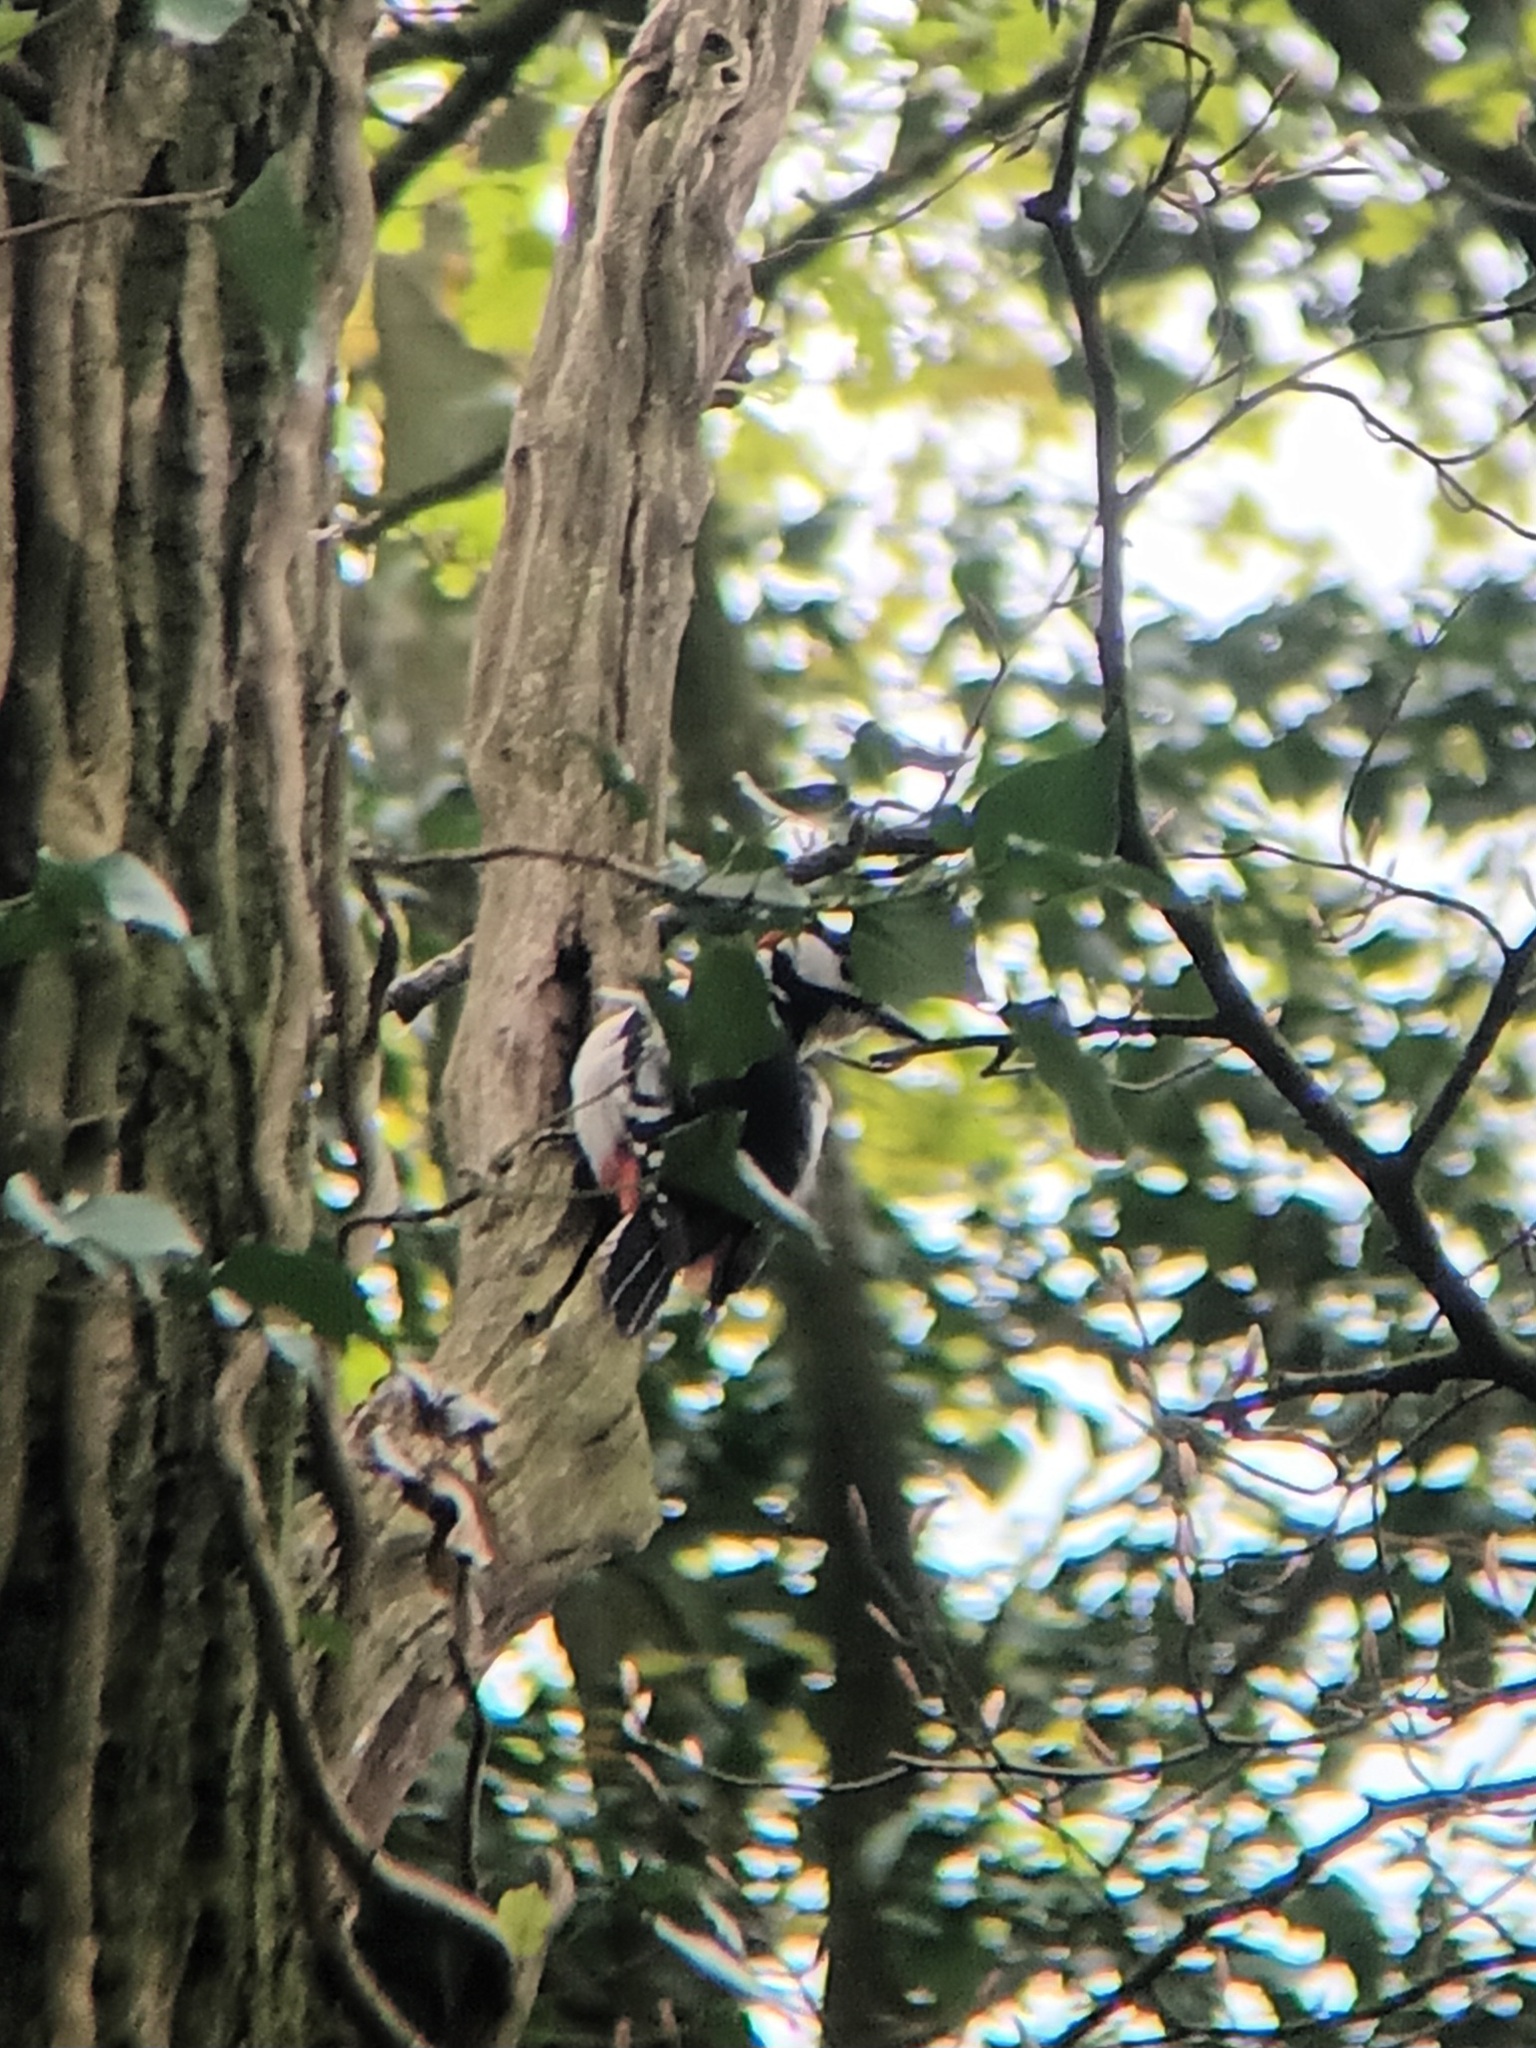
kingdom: Animalia
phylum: Chordata
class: Aves
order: Piciformes
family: Picidae
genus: Dendrocopos
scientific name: Dendrocopos major
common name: Great spotted woodpecker
